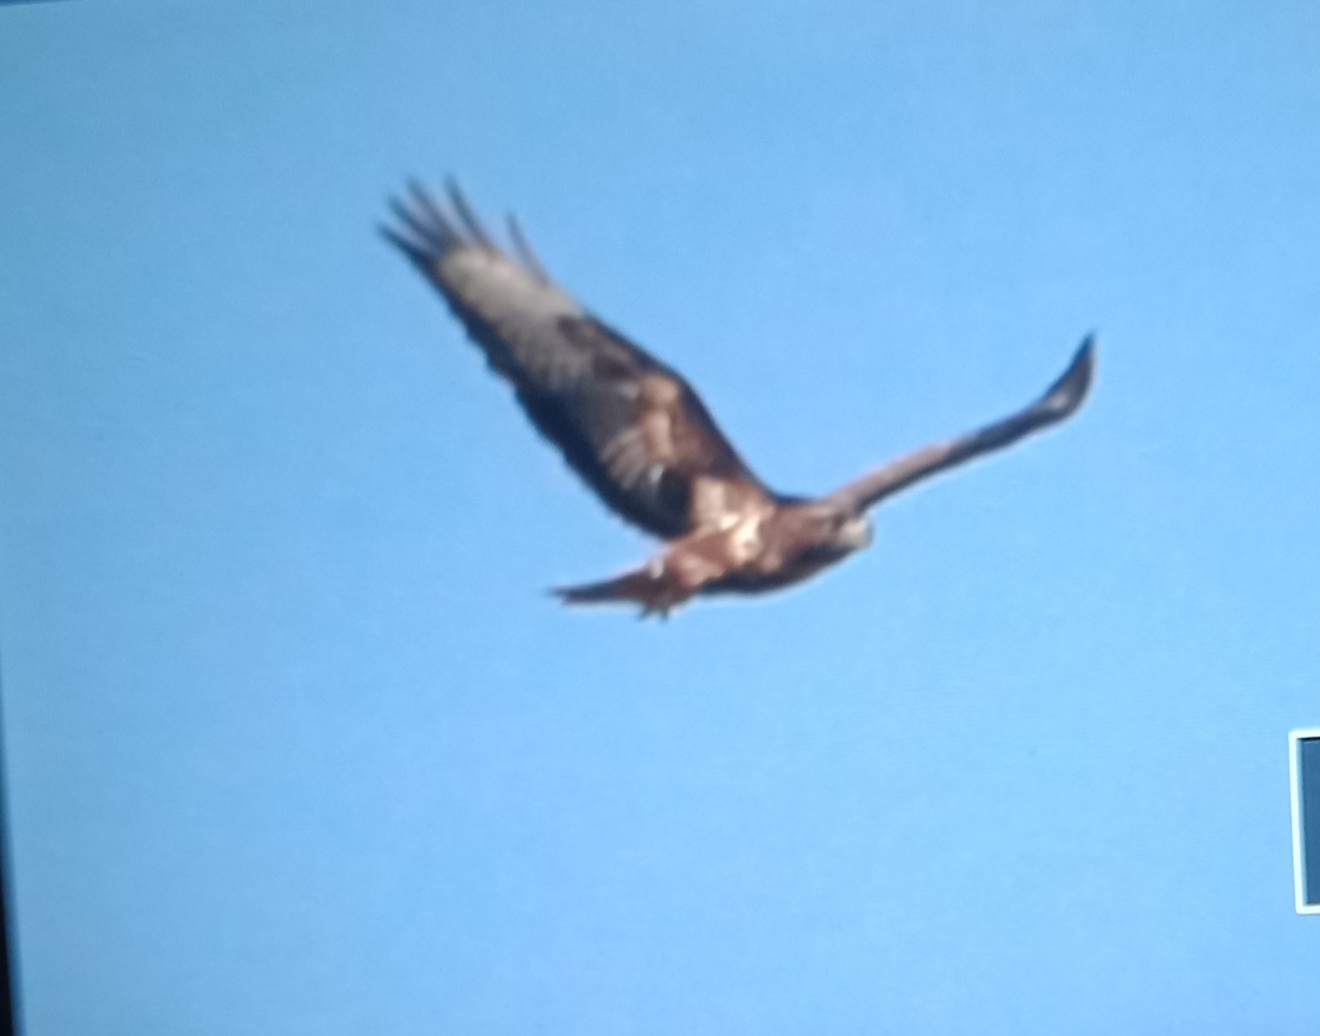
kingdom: Animalia
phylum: Chordata
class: Aves
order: Accipitriformes
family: Accipitridae
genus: Buteo
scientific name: Buteo buteo
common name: Common buzzard
